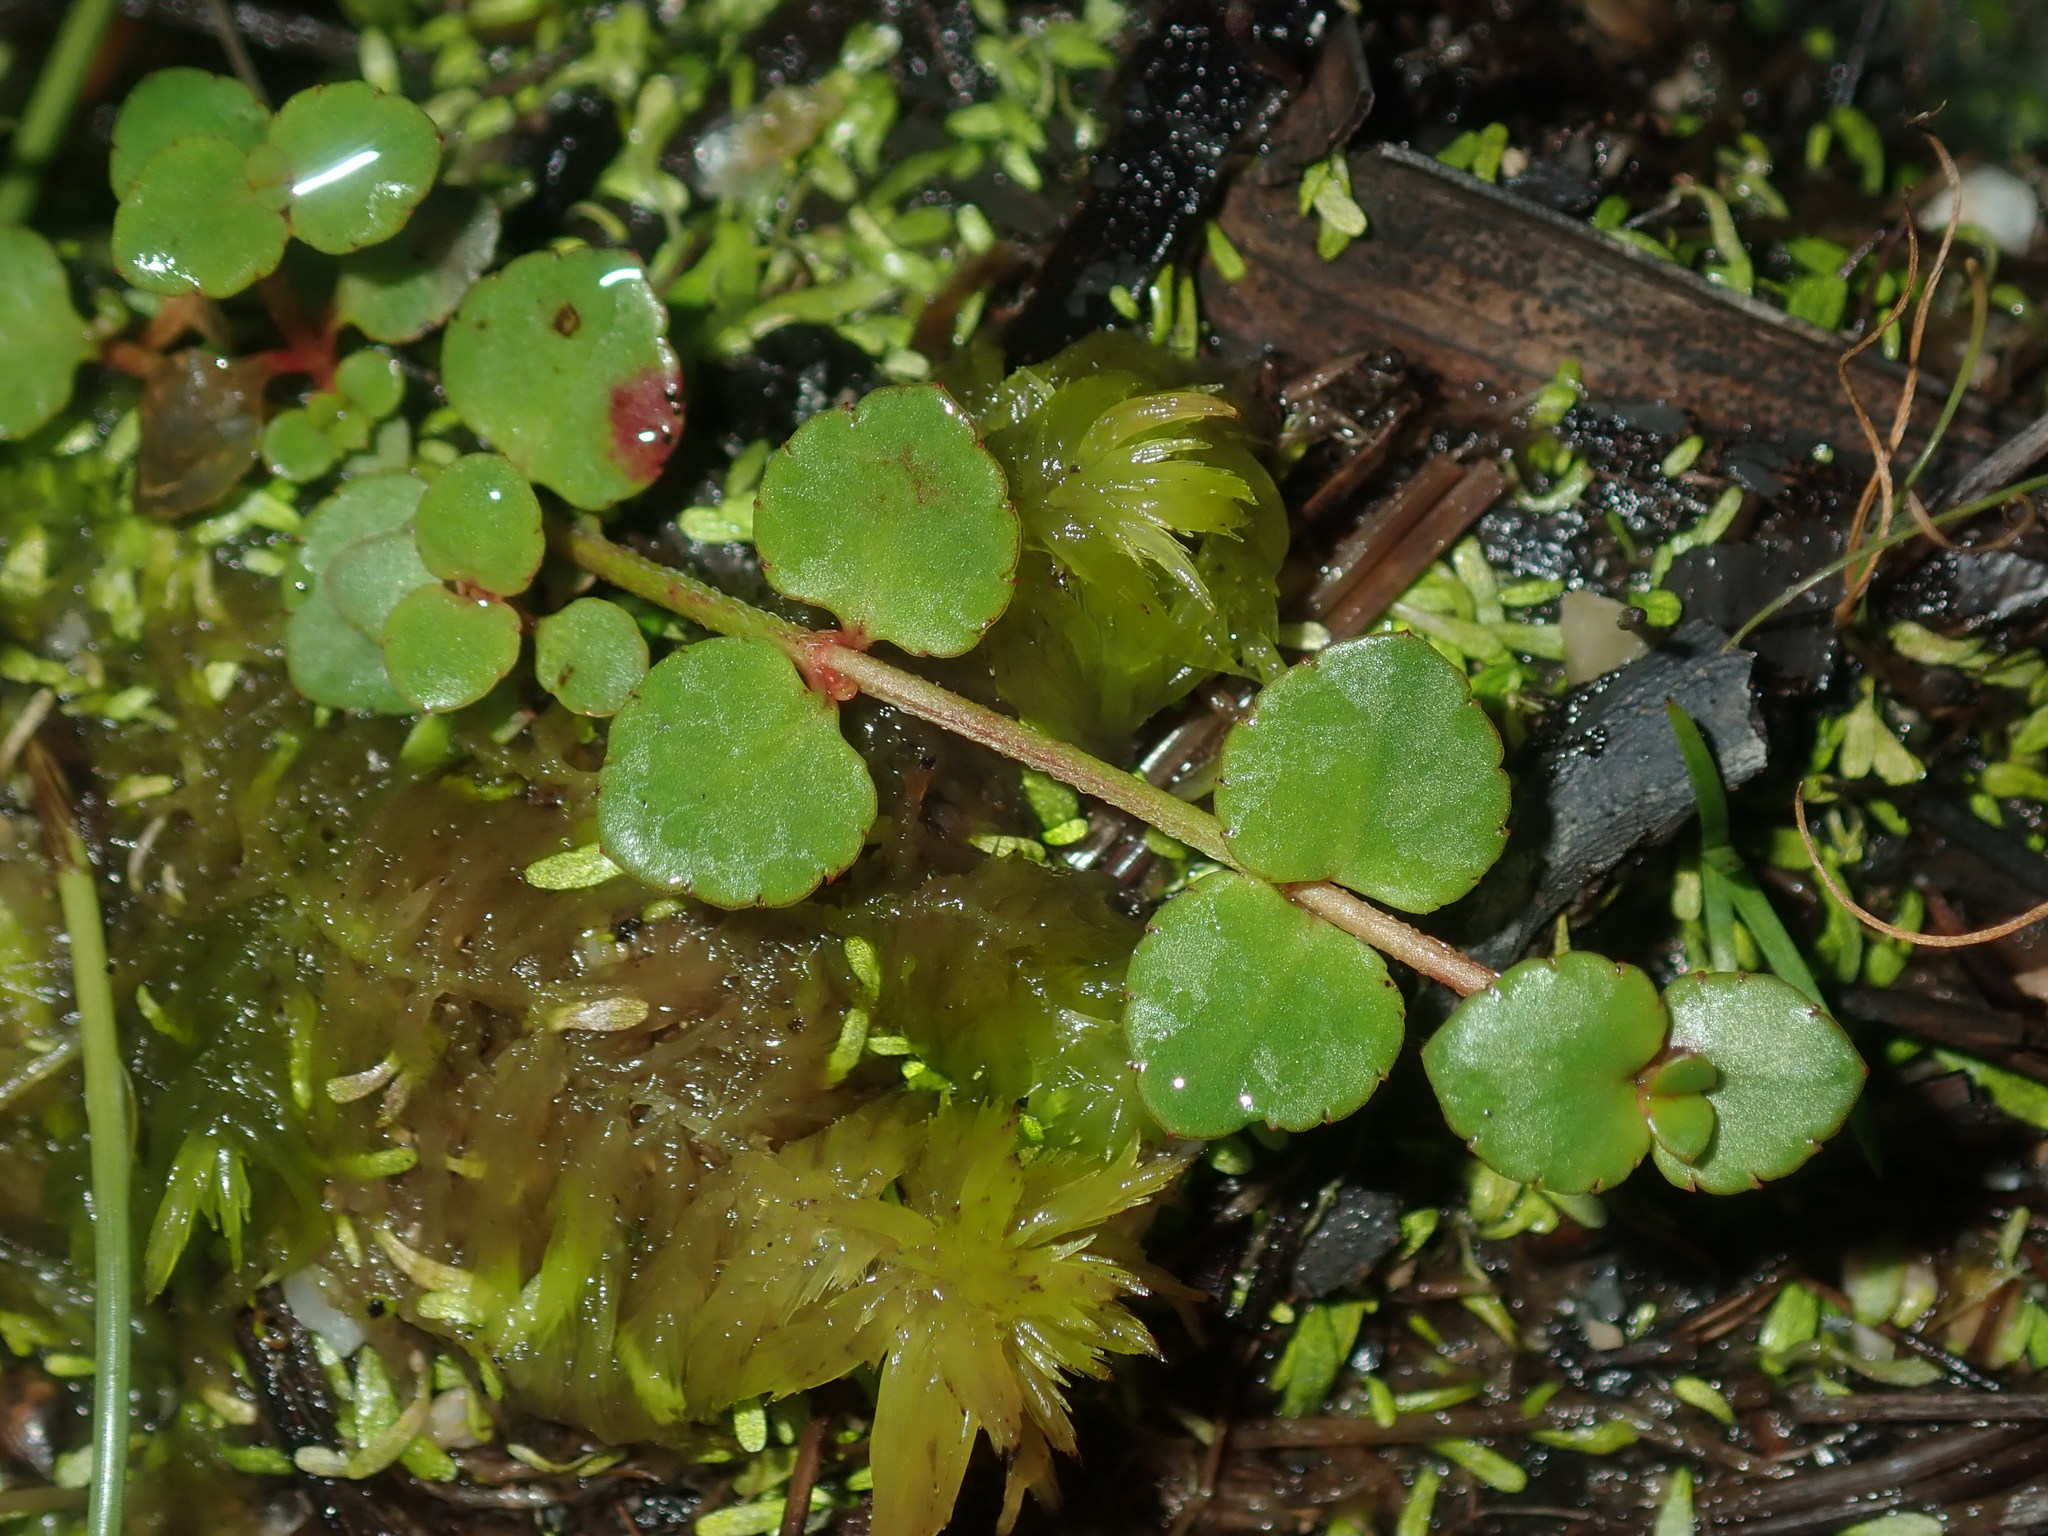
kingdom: Plantae
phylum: Tracheophyta
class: Magnoliopsida
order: Saxifragales
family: Haloragaceae
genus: Gonocarpus
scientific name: Gonocarpus micranthus
